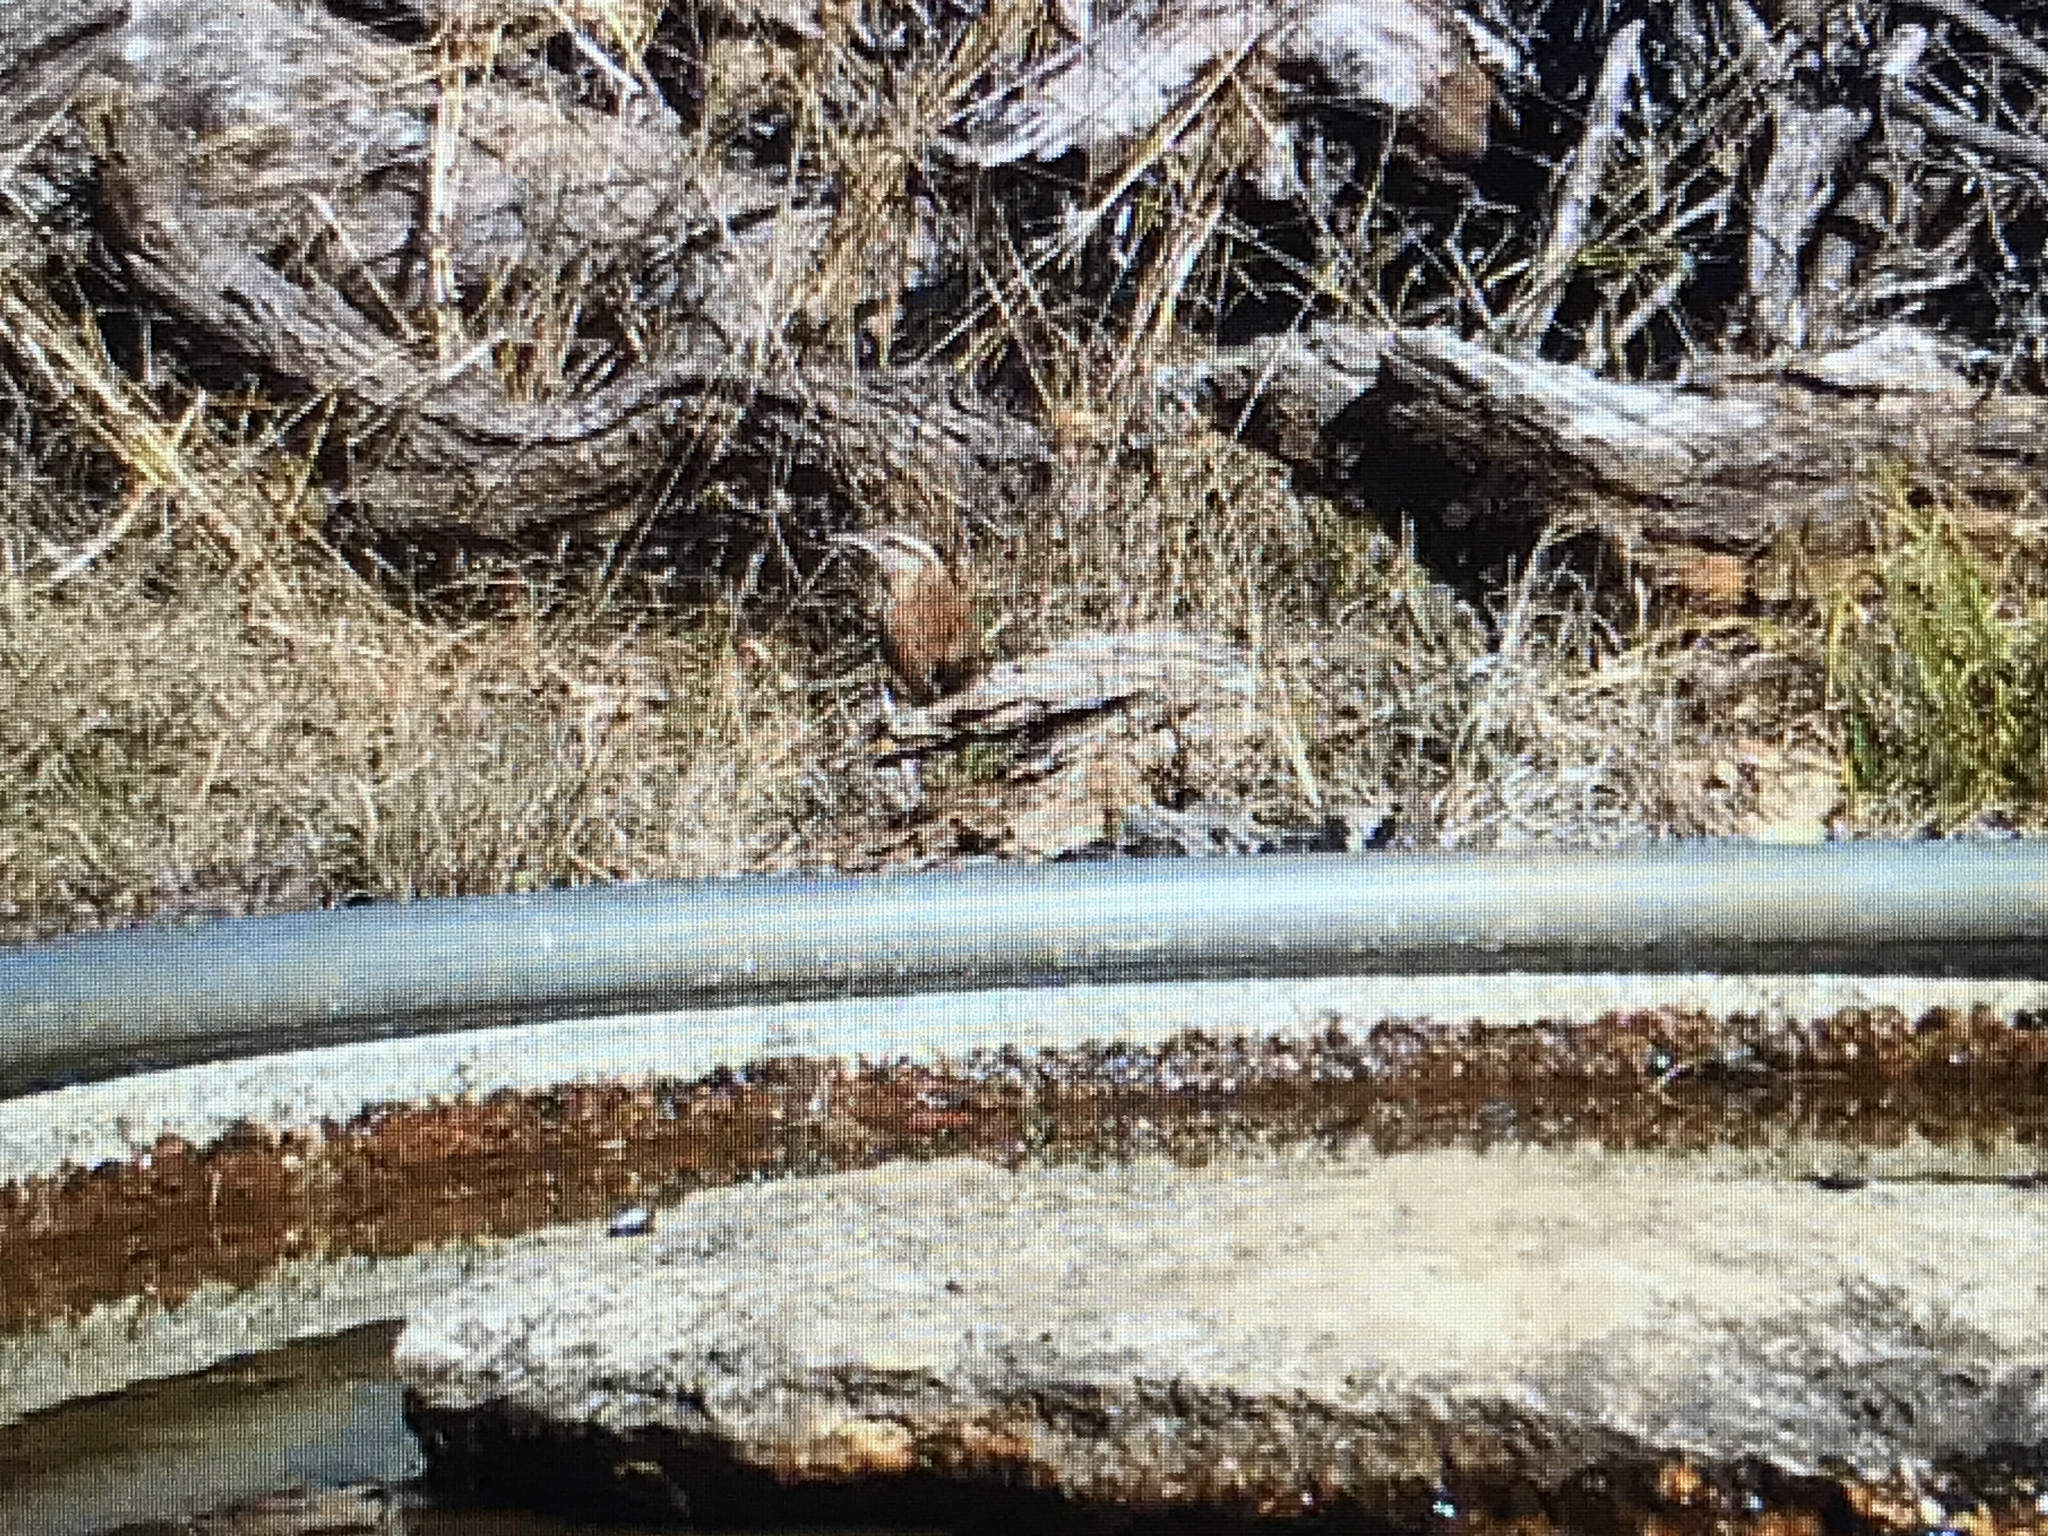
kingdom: Animalia
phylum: Chordata
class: Aves
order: Passeriformes
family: Troglodytidae
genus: Thryothorus
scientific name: Thryothorus ludovicianus
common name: Carolina wren
